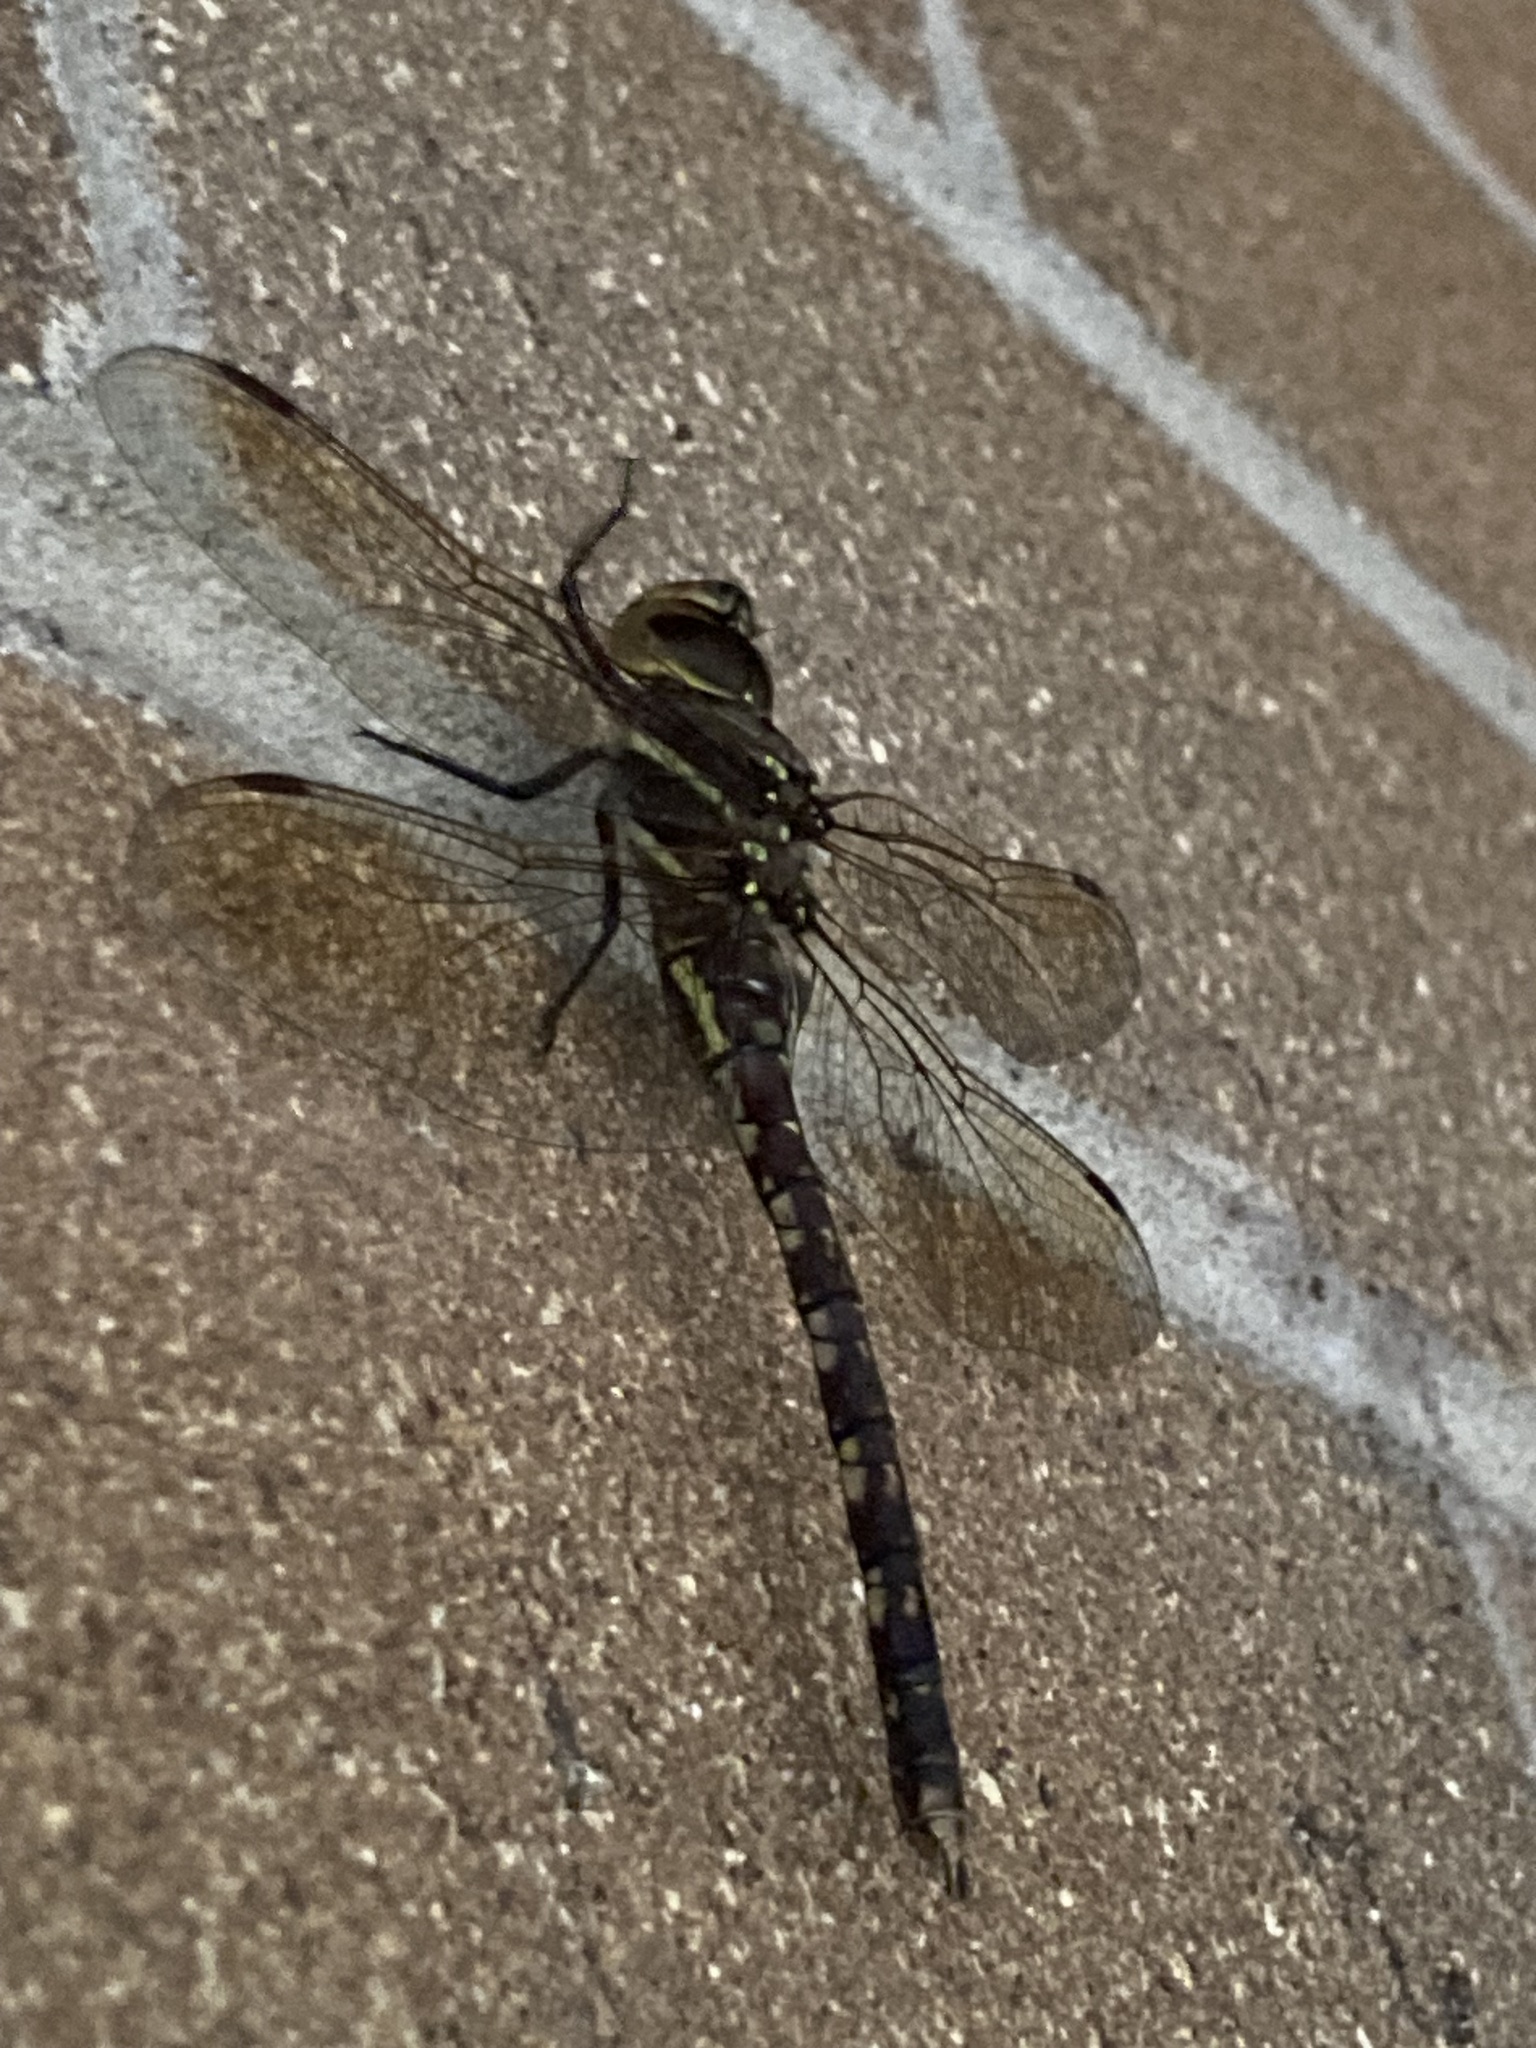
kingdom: Animalia
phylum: Arthropoda
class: Insecta
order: Odonata
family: Aeshnidae
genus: Aeshna
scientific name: Aeshna brevistyla
